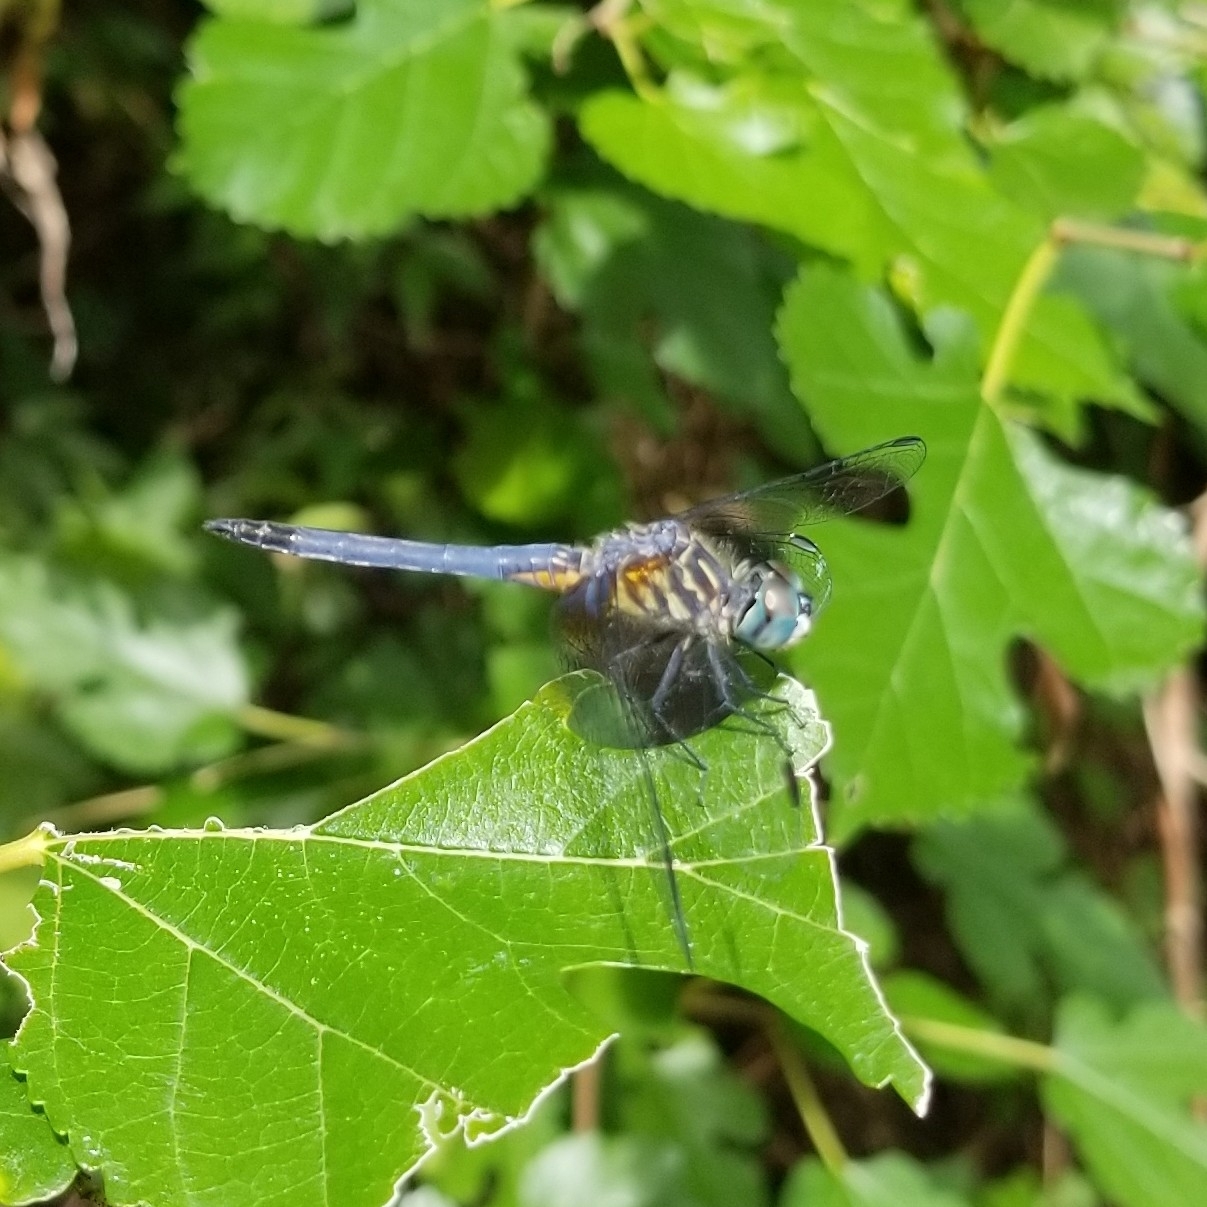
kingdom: Animalia
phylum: Arthropoda
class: Insecta
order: Odonata
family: Libellulidae
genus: Pachydiplax
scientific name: Pachydiplax longipennis
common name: Blue dasher
